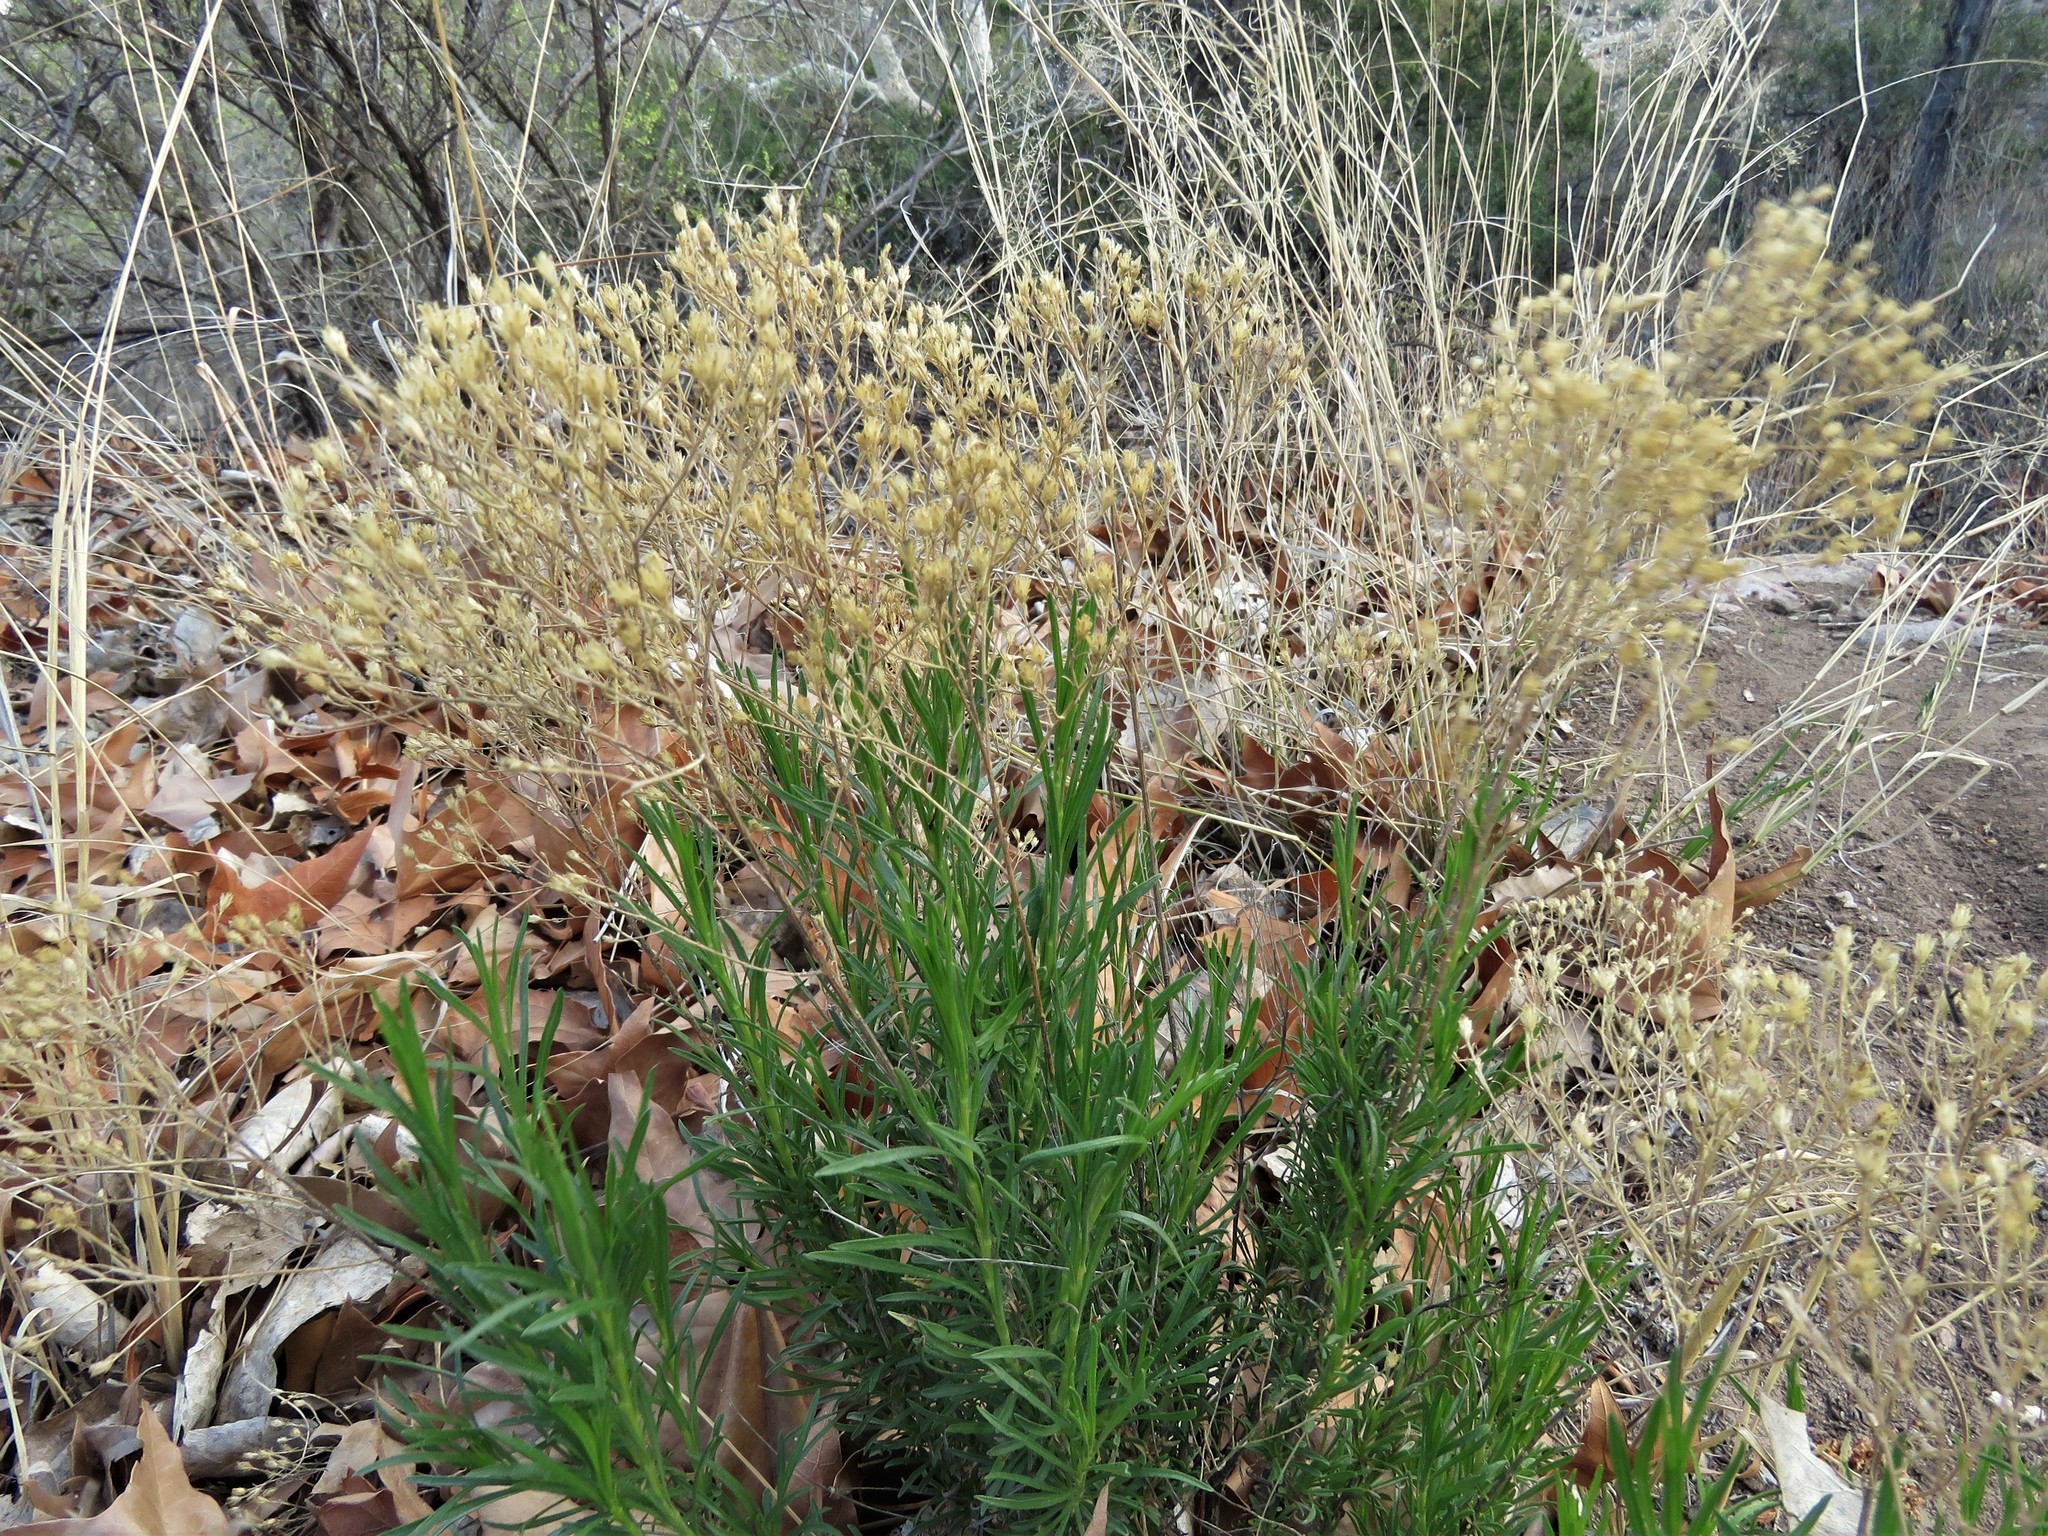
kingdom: Plantae
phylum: Tracheophyta
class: Magnoliopsida
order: Asterales
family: Asteraceae
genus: Gutierrezia
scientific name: Gutierrezia sarothrae
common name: Broom snakeweed
